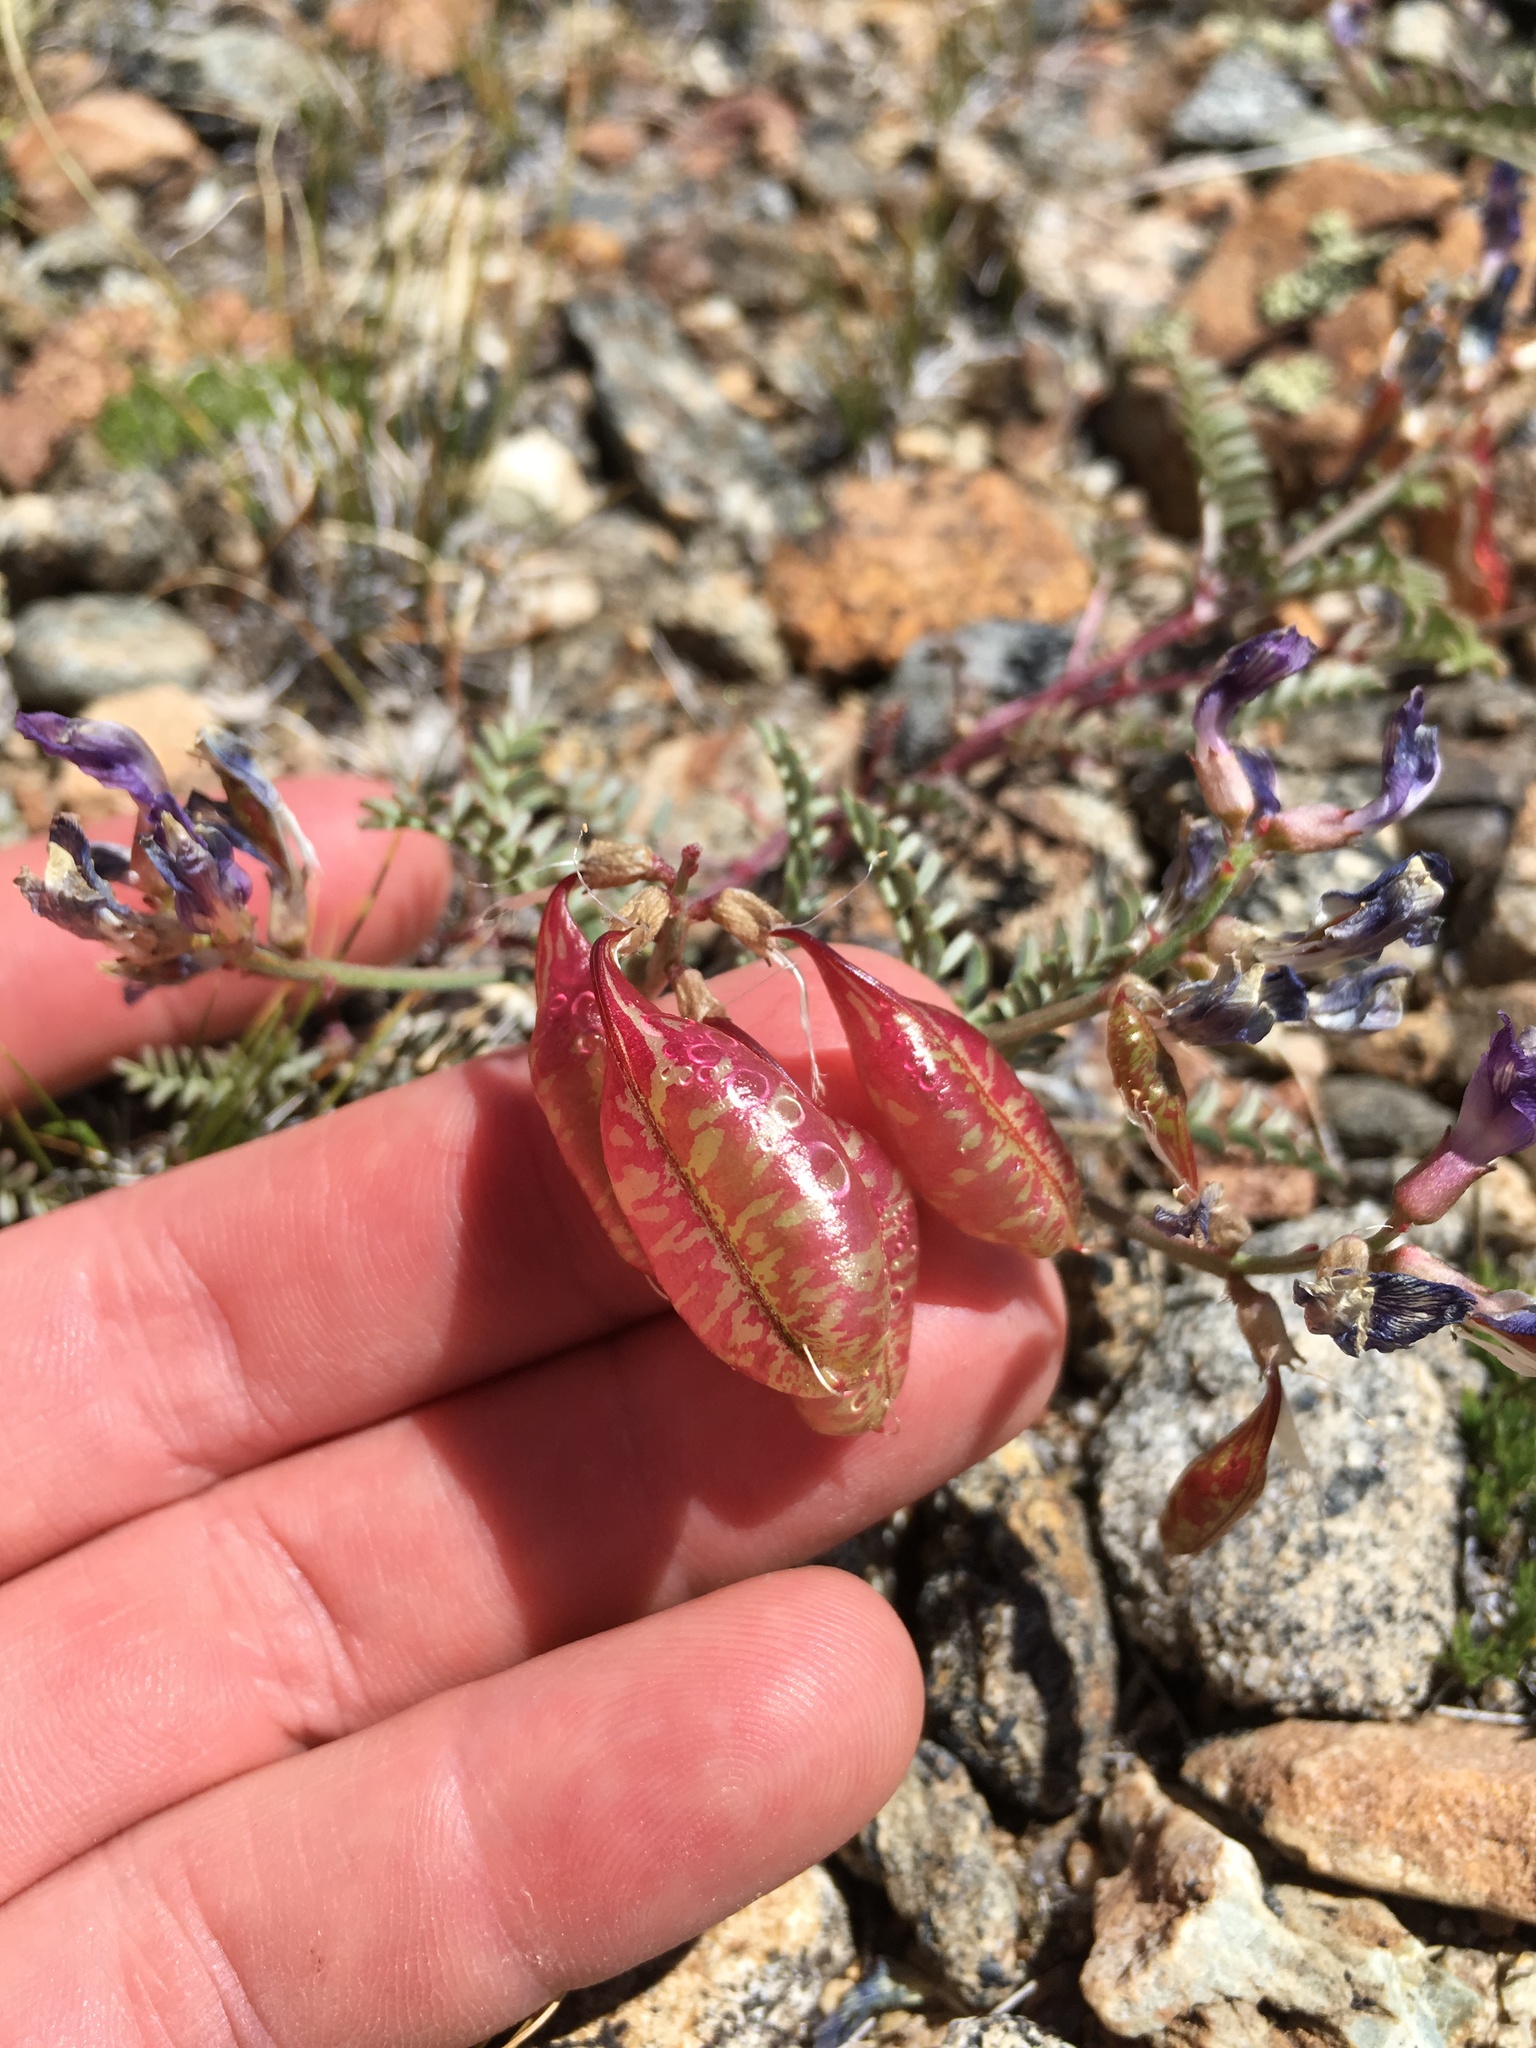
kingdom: Plantae
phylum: Tracheophyta
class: Magnoliopsida
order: Fabales
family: Fabaceae
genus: Astragalus
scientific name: Astragalus whitneyi
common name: Balloonpod milkvetch
